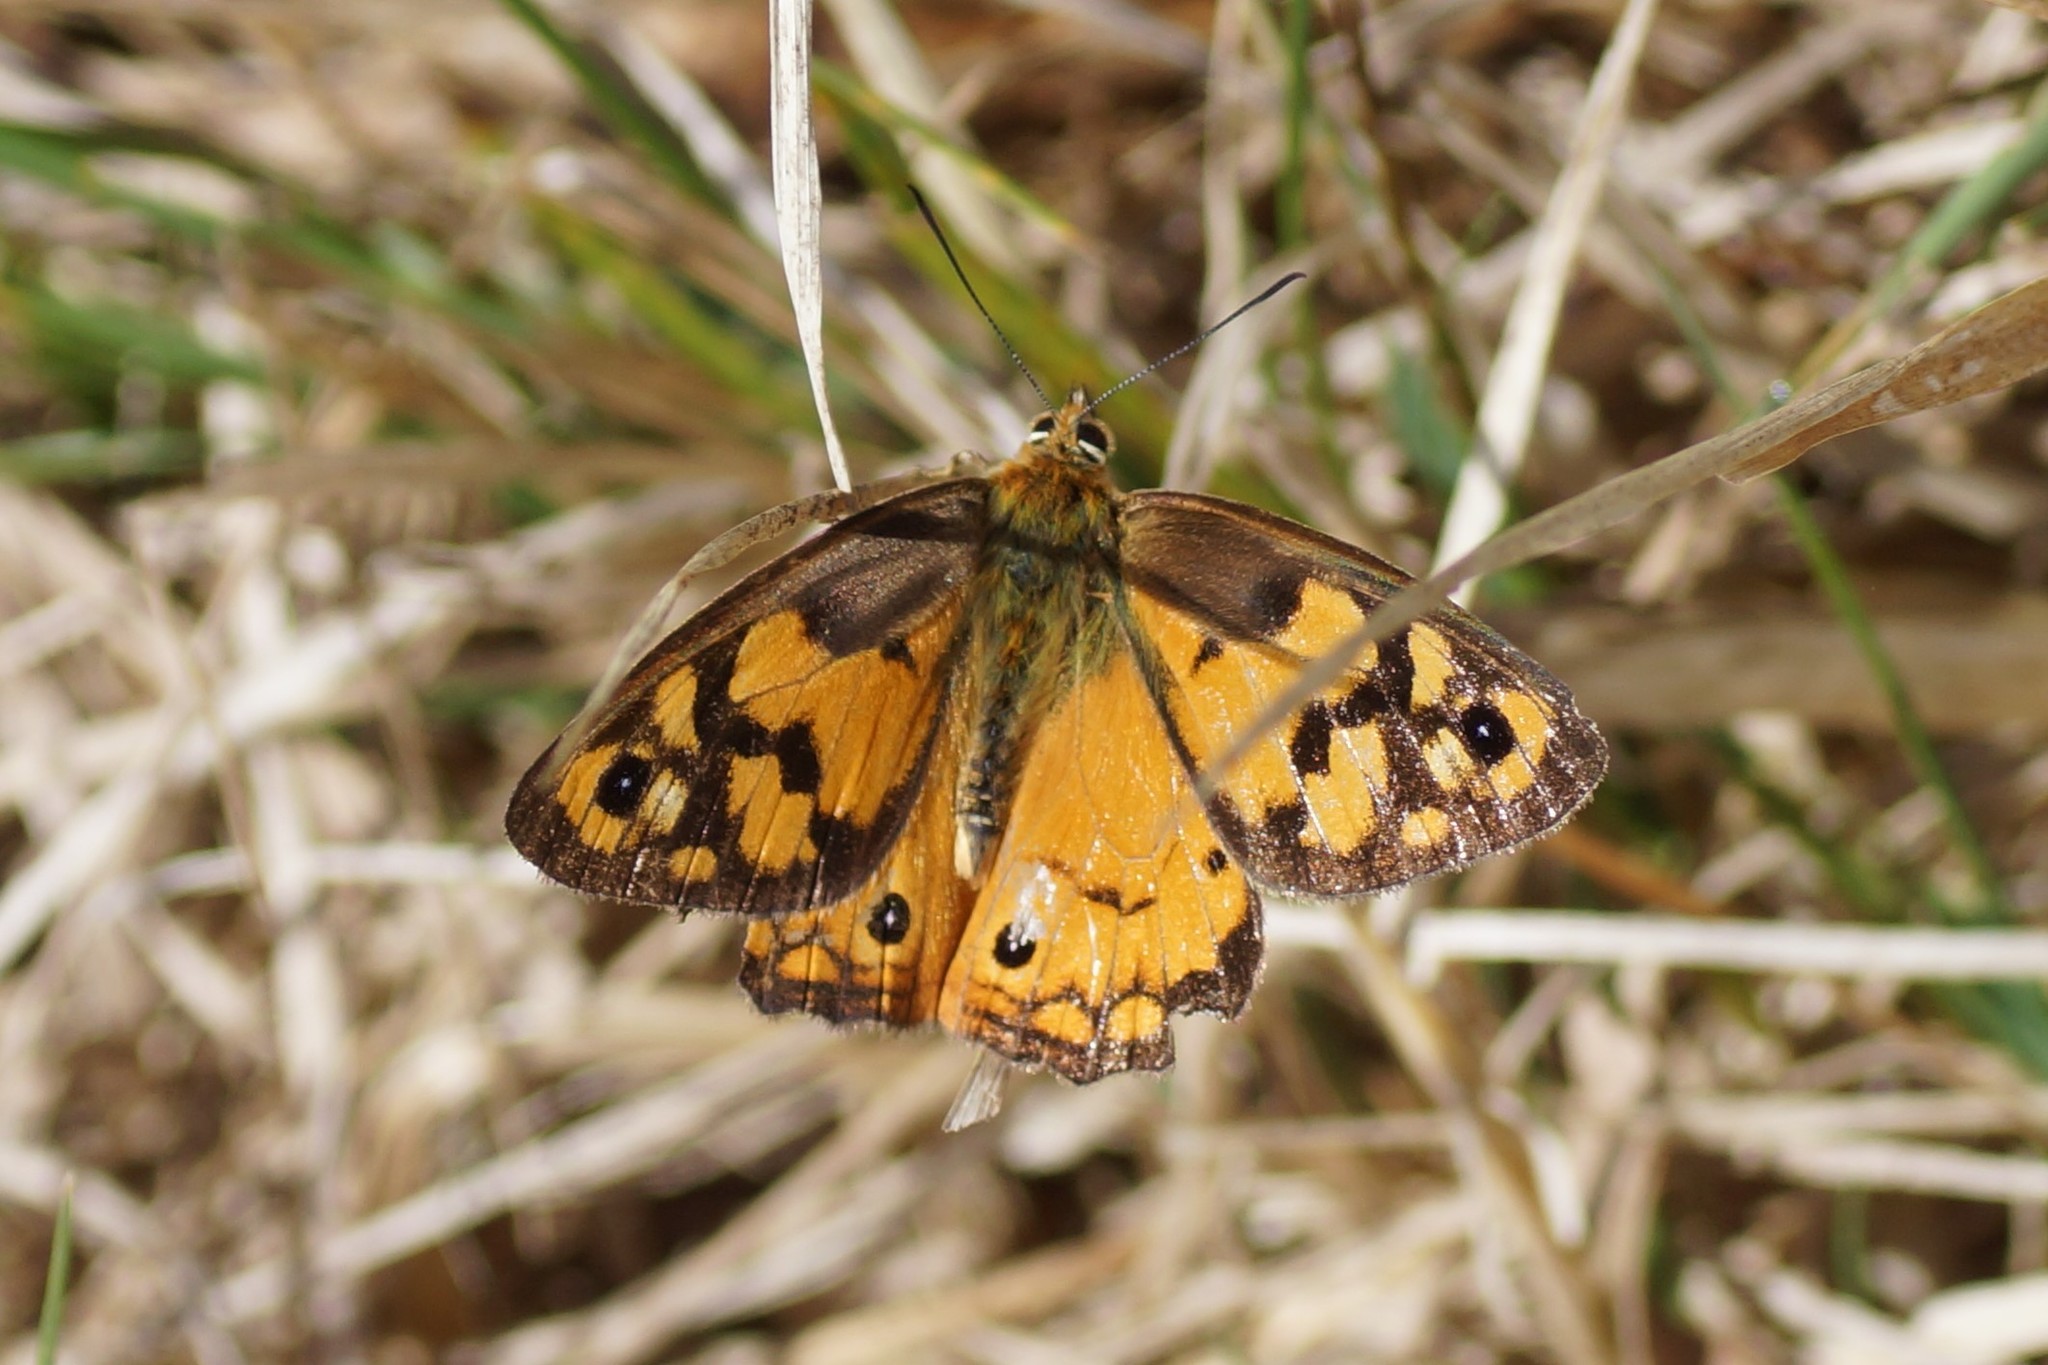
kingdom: Animalia
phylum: Arthropoda
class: Insecta
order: Lepidoptera
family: Nymphalidae
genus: Heteronympha
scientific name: Heteronympha penelope
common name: Shouldered brown
